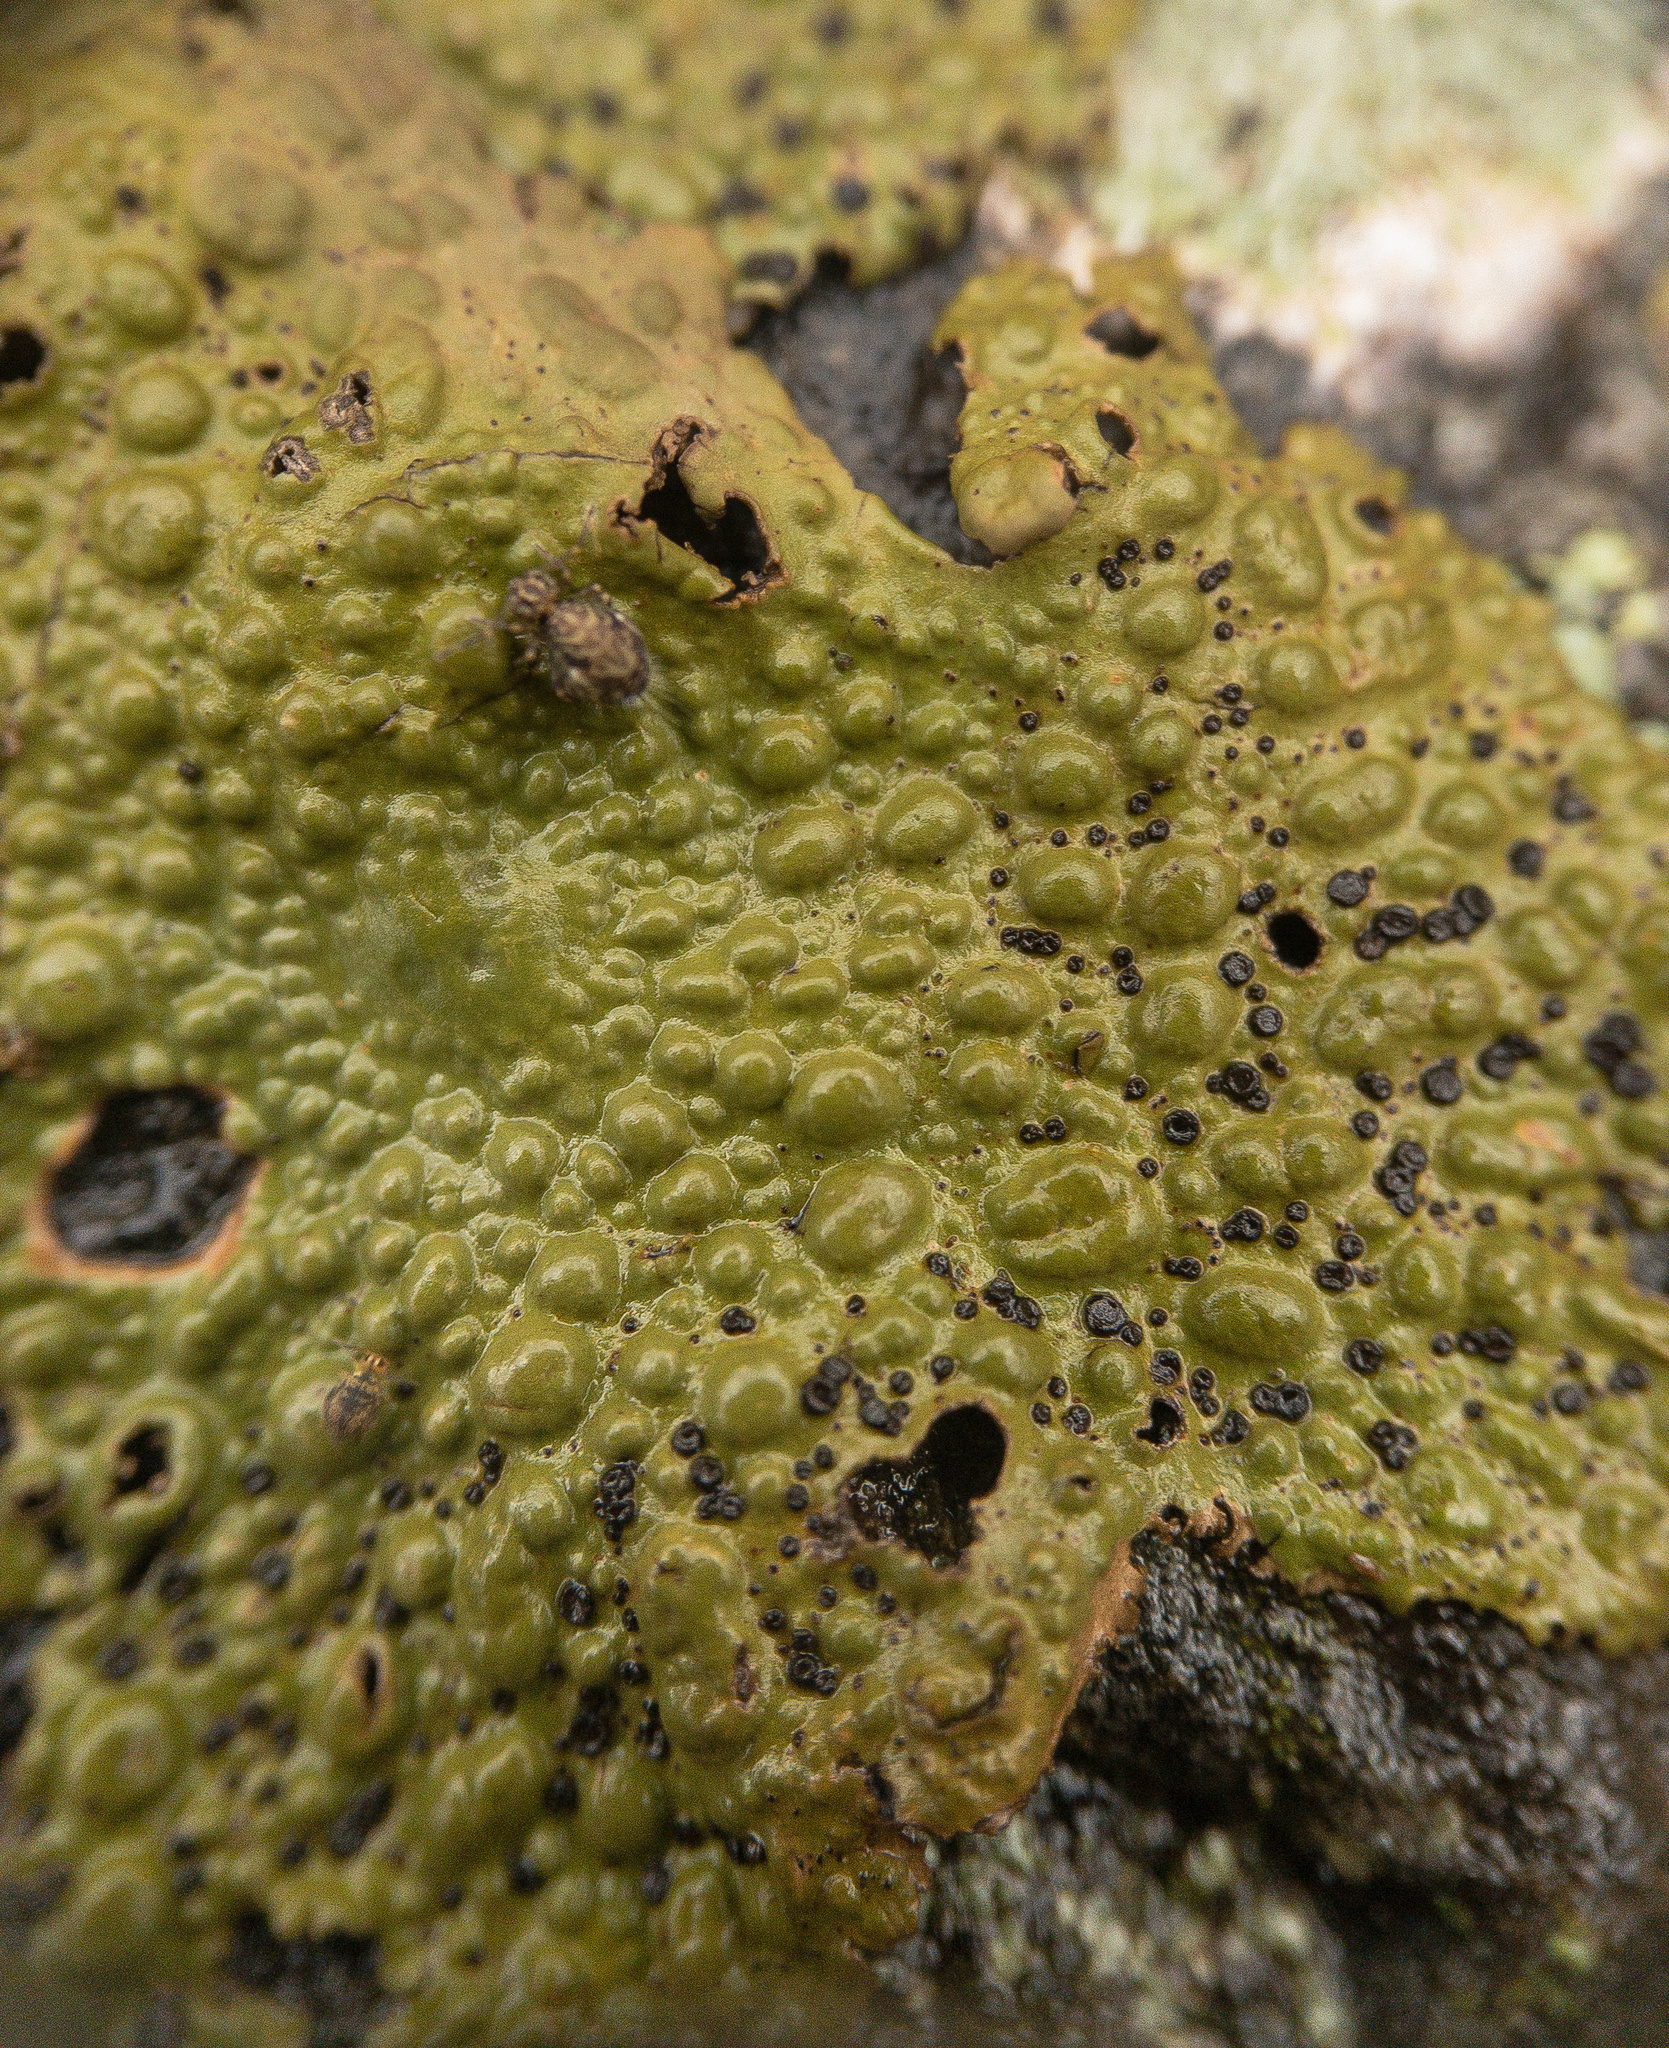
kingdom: Fungi
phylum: Ascomycota
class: Lecanoromycetes
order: Umbilicariales
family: Umbilicariaceae
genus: Lasallia
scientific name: Lasallia papulosa
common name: Common toadskin lichen
